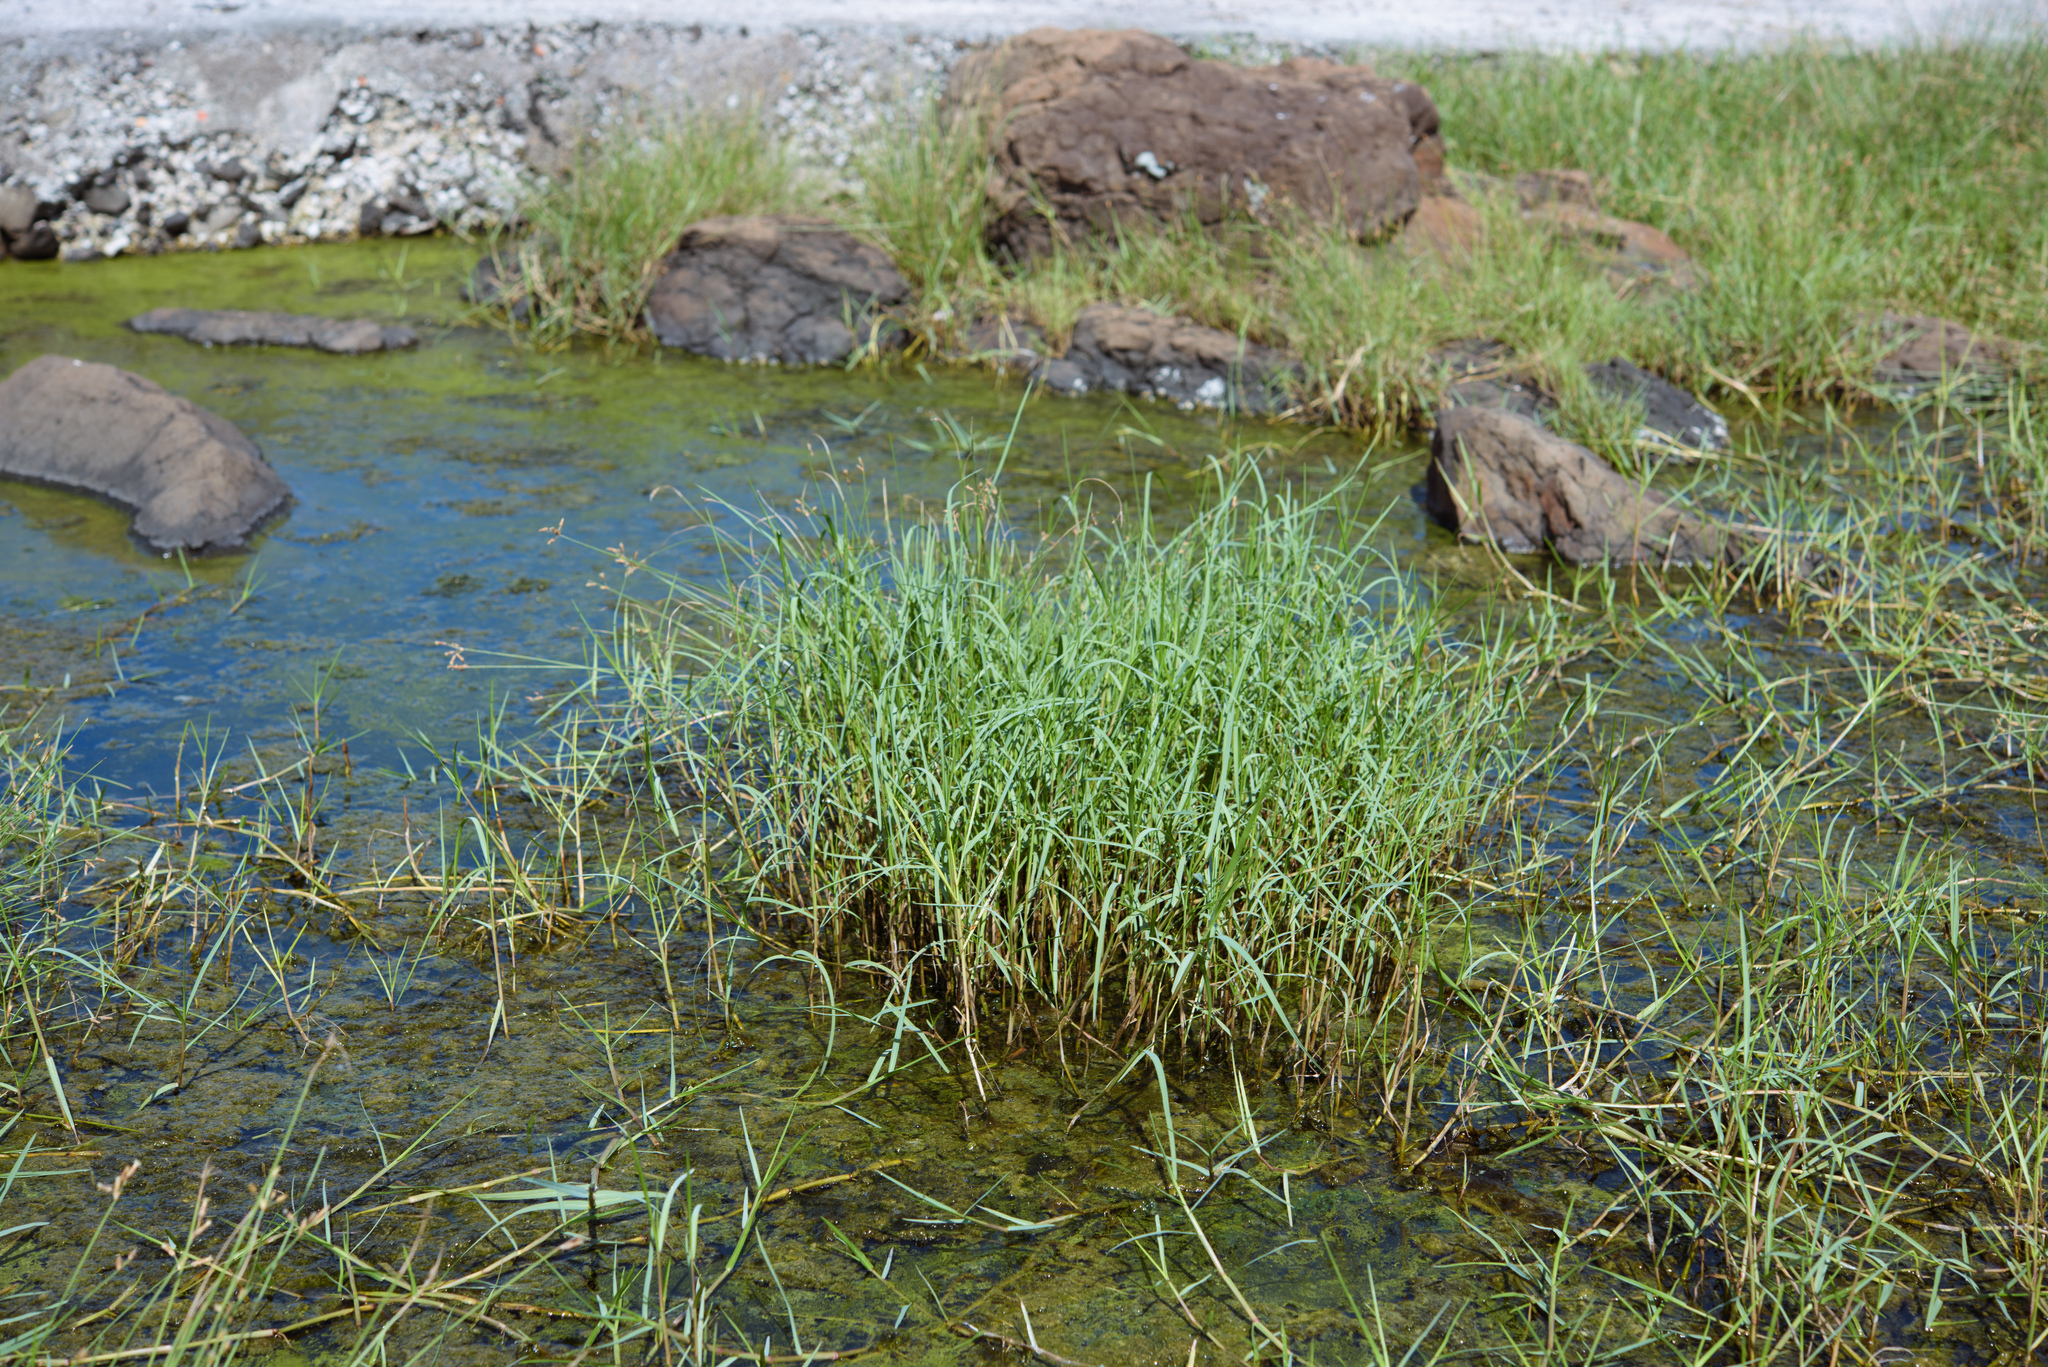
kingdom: Plantae
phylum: Tracheophyta
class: Liliopsida
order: Poales
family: Poaceae
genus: Paspalum
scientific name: Paspalum vaginatum
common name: Seashore paspalum
